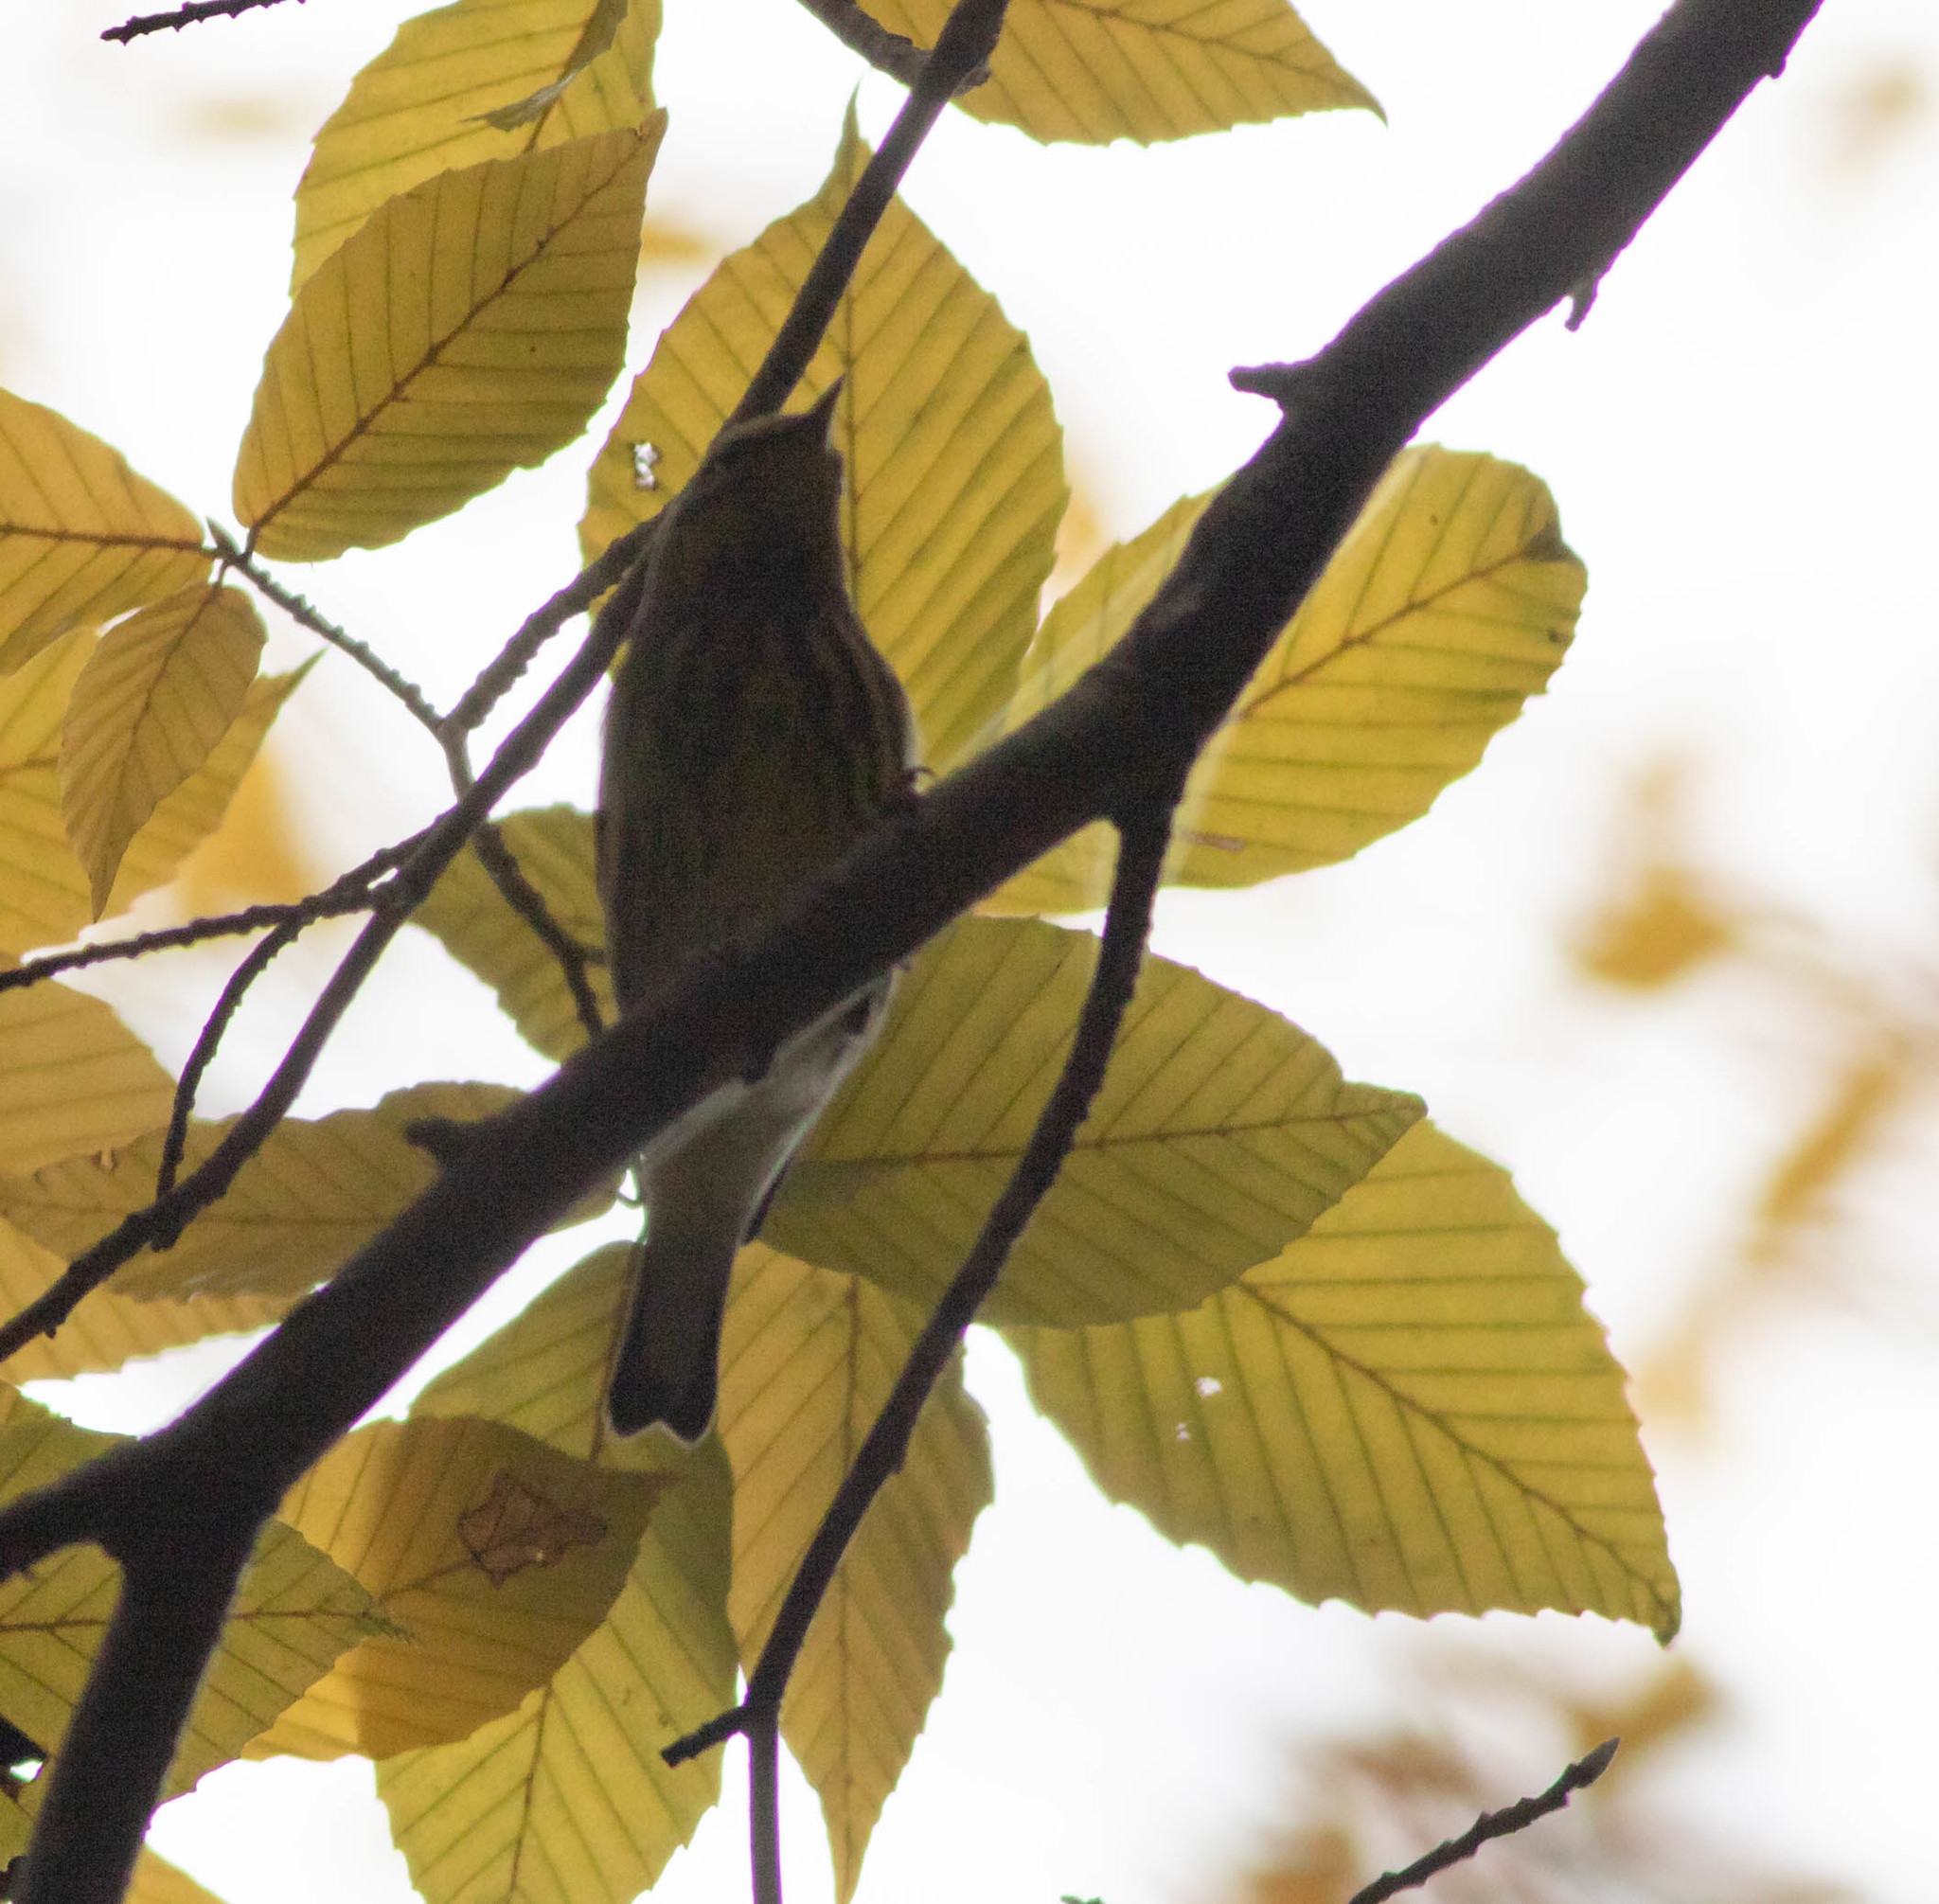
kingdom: Animalia
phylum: Chordata
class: Aves
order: Passeriformes
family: Parulidae
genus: Setophaga
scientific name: Setophaga tigrina
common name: Cape may warbler
